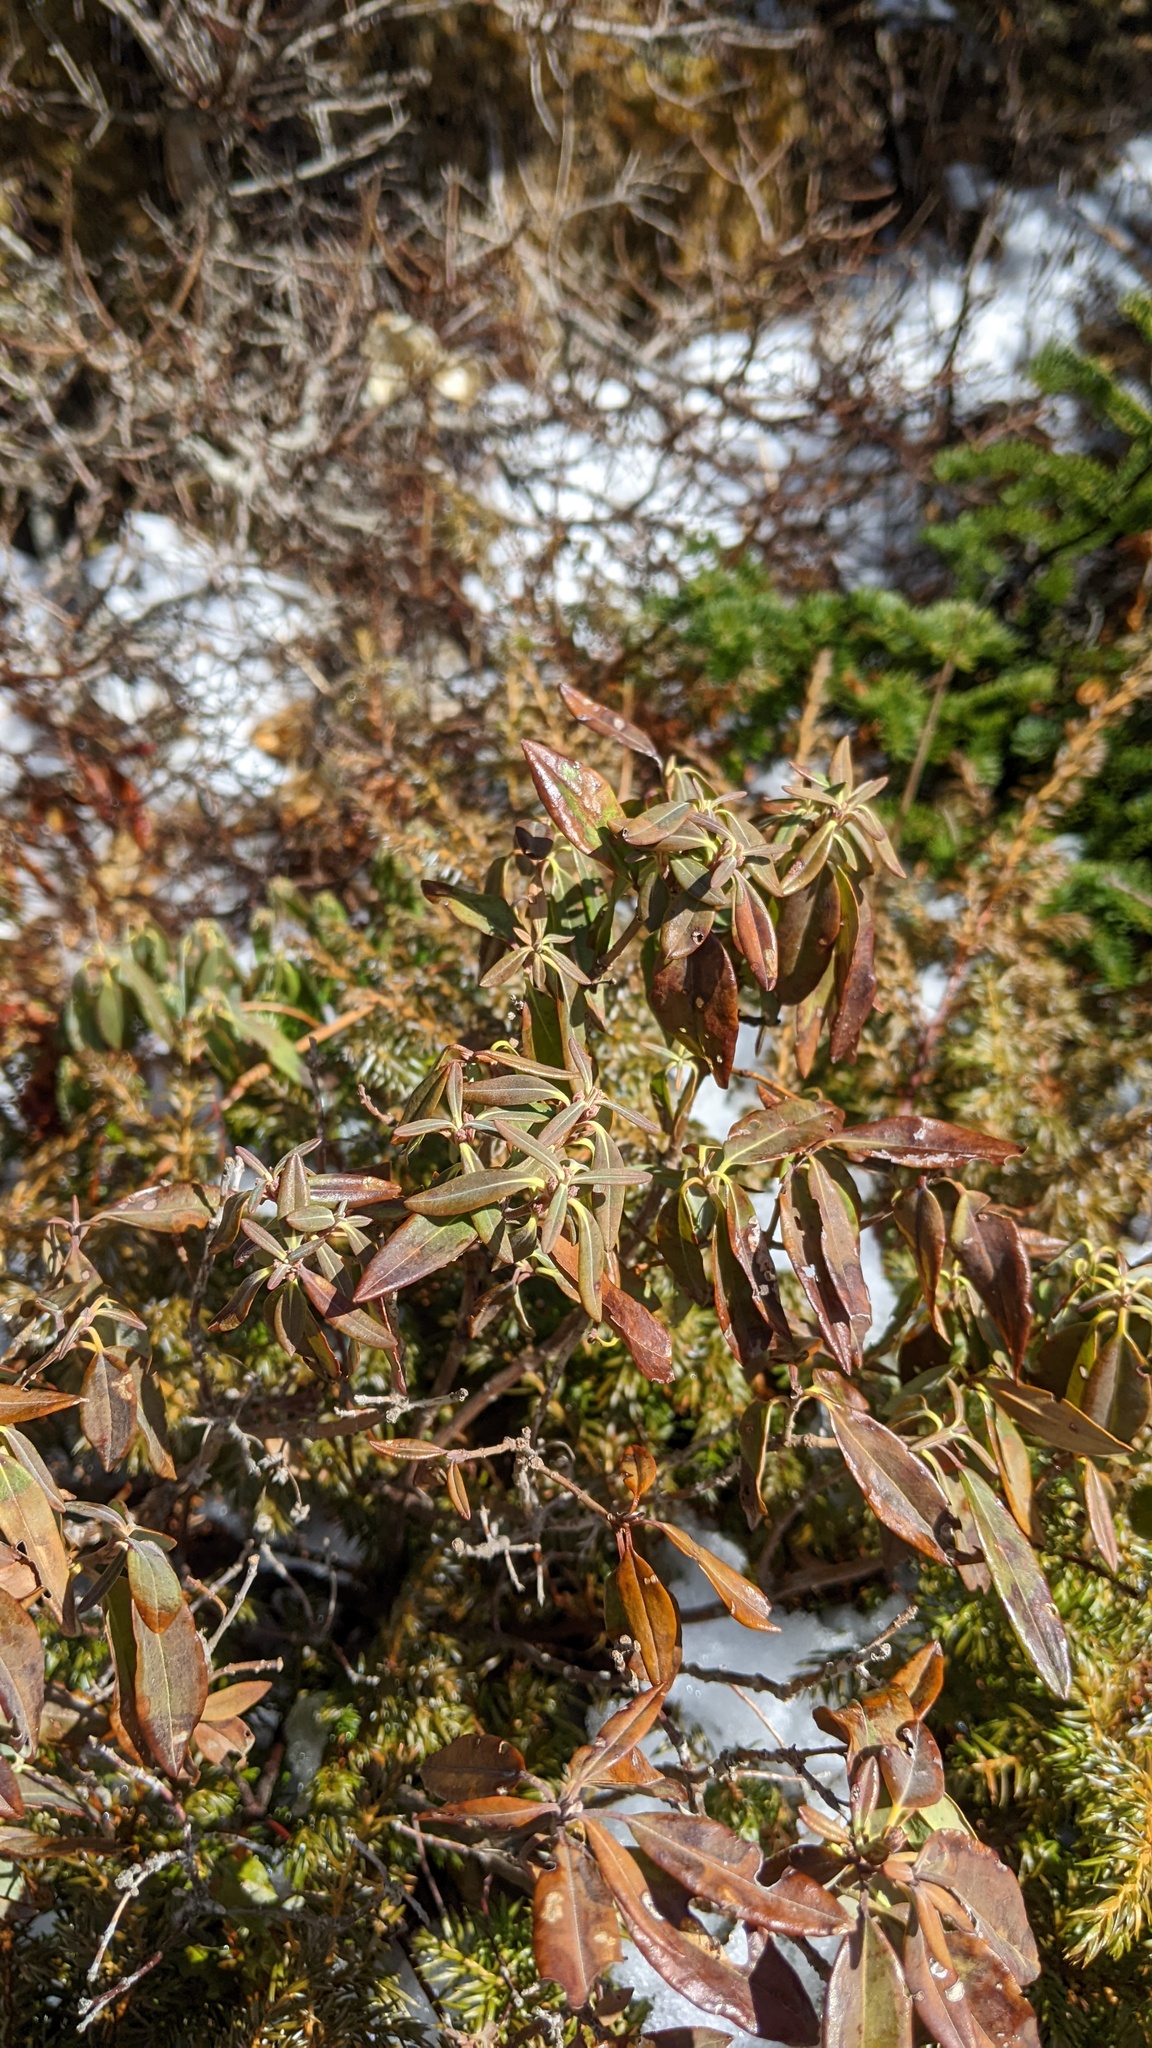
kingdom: Plantae
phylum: Tracheophyta
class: Magnoliopsida
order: Ericales
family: Ericaceae
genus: Kalmia
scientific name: Kalmia angustifolia
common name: Sheep-laurel
